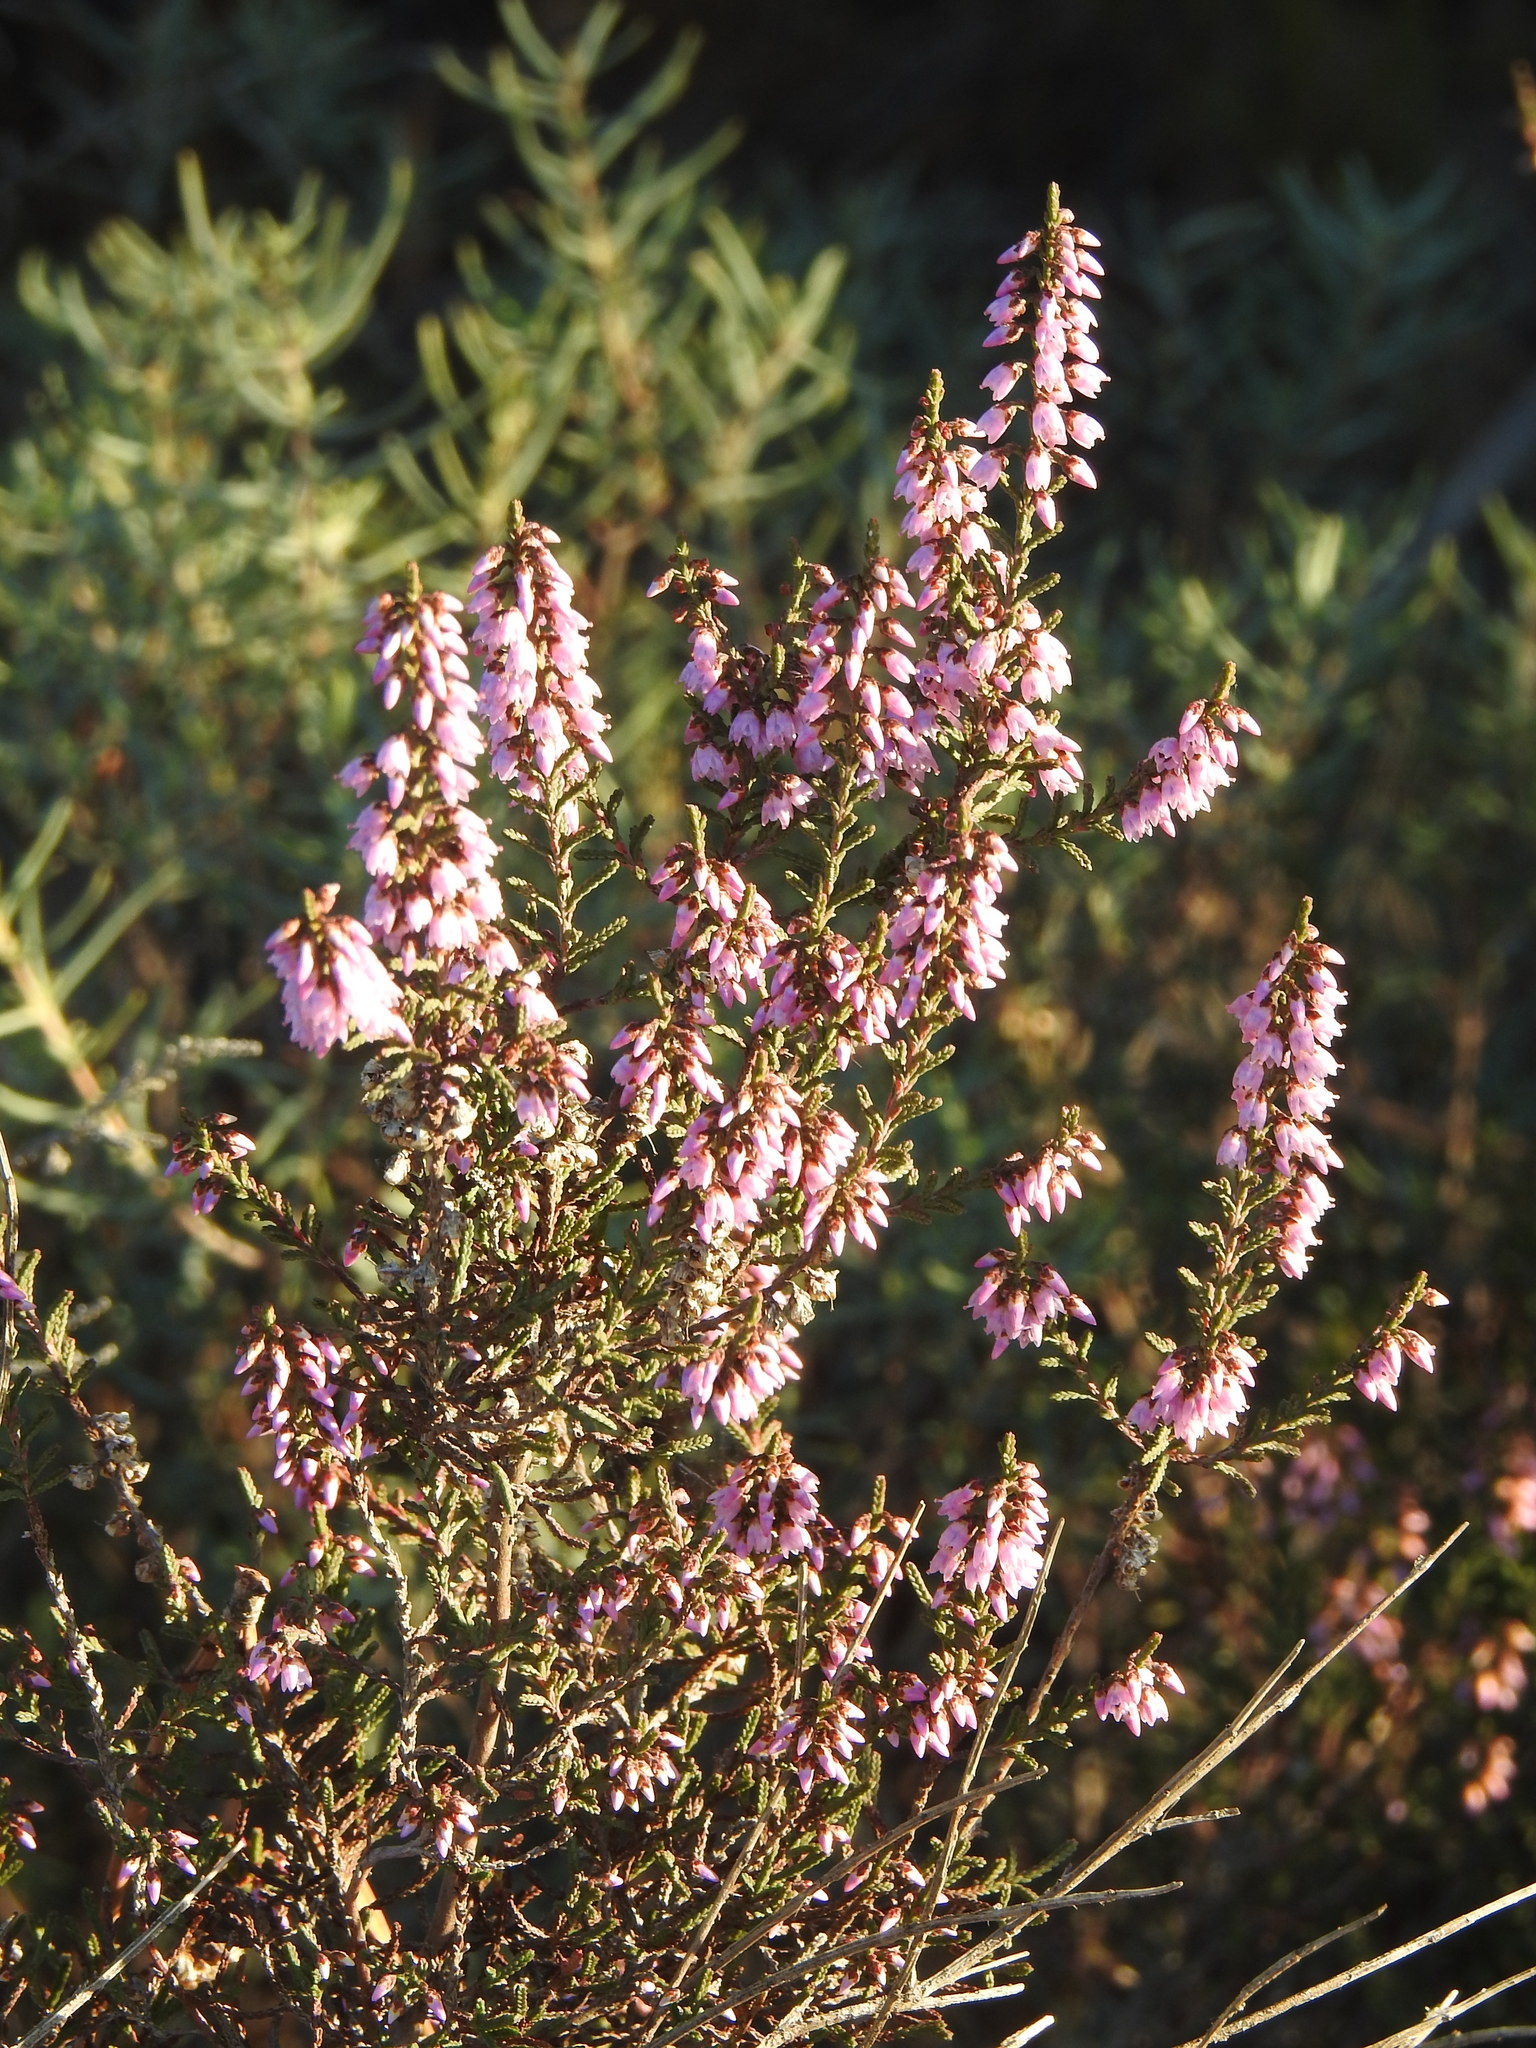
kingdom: Plantae
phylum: Tracheophyta
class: Magnoliopsida
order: Ericales
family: Ericaceae
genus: Calluna
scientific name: Calluna vulgaris
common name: Heather
